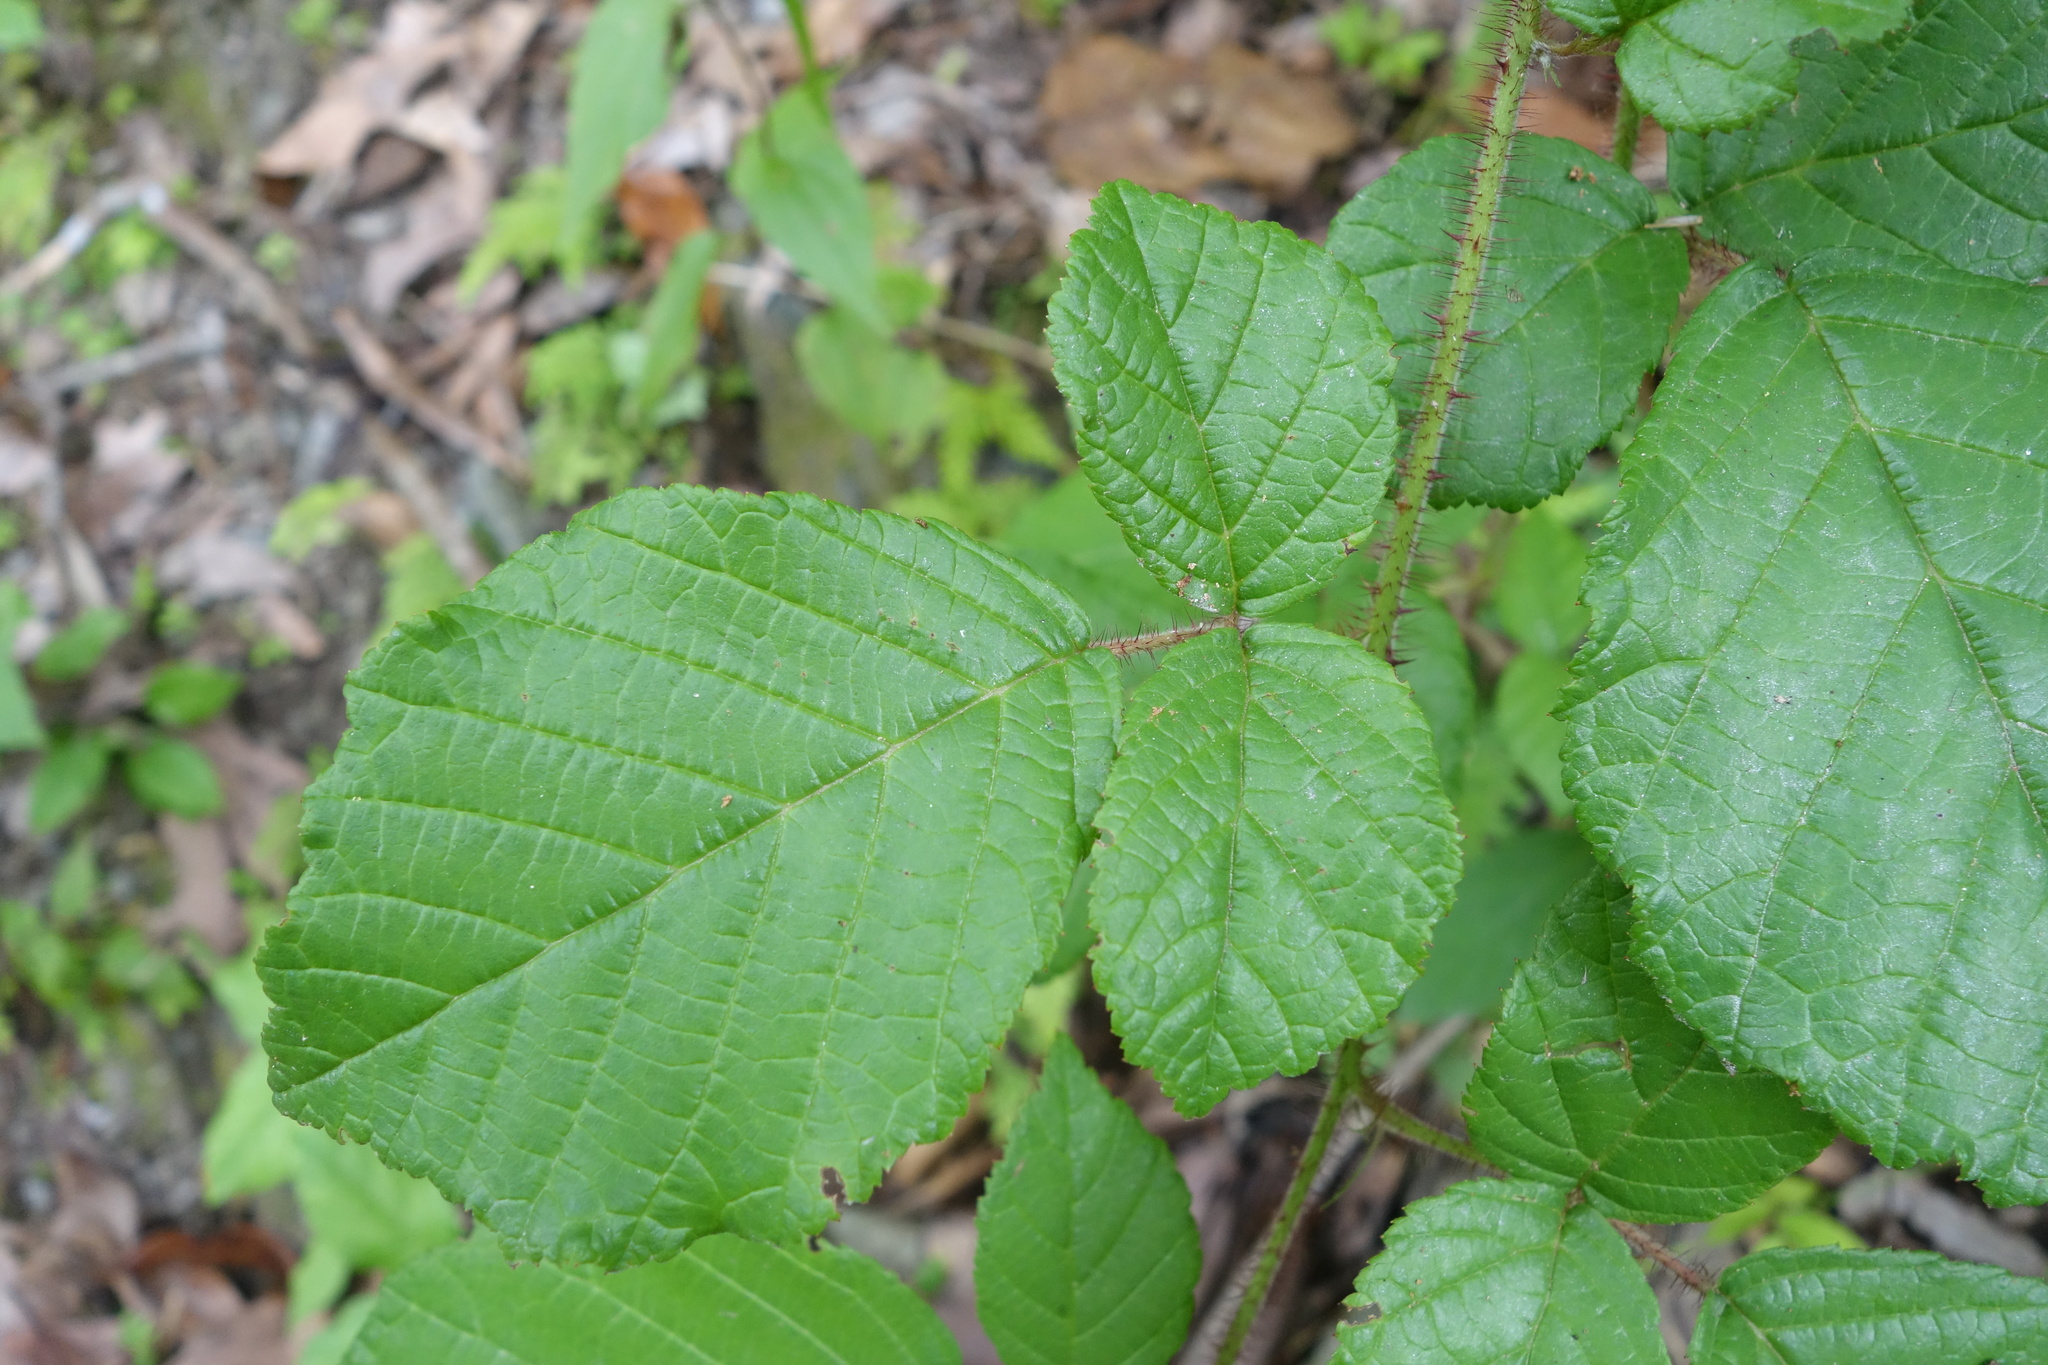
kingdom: Plantae
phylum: Tracheophyta
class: Magnoliopsida
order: Rosales
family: Rosaceae
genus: Rubus
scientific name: Rubus ellipticus
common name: Cheeseberry
